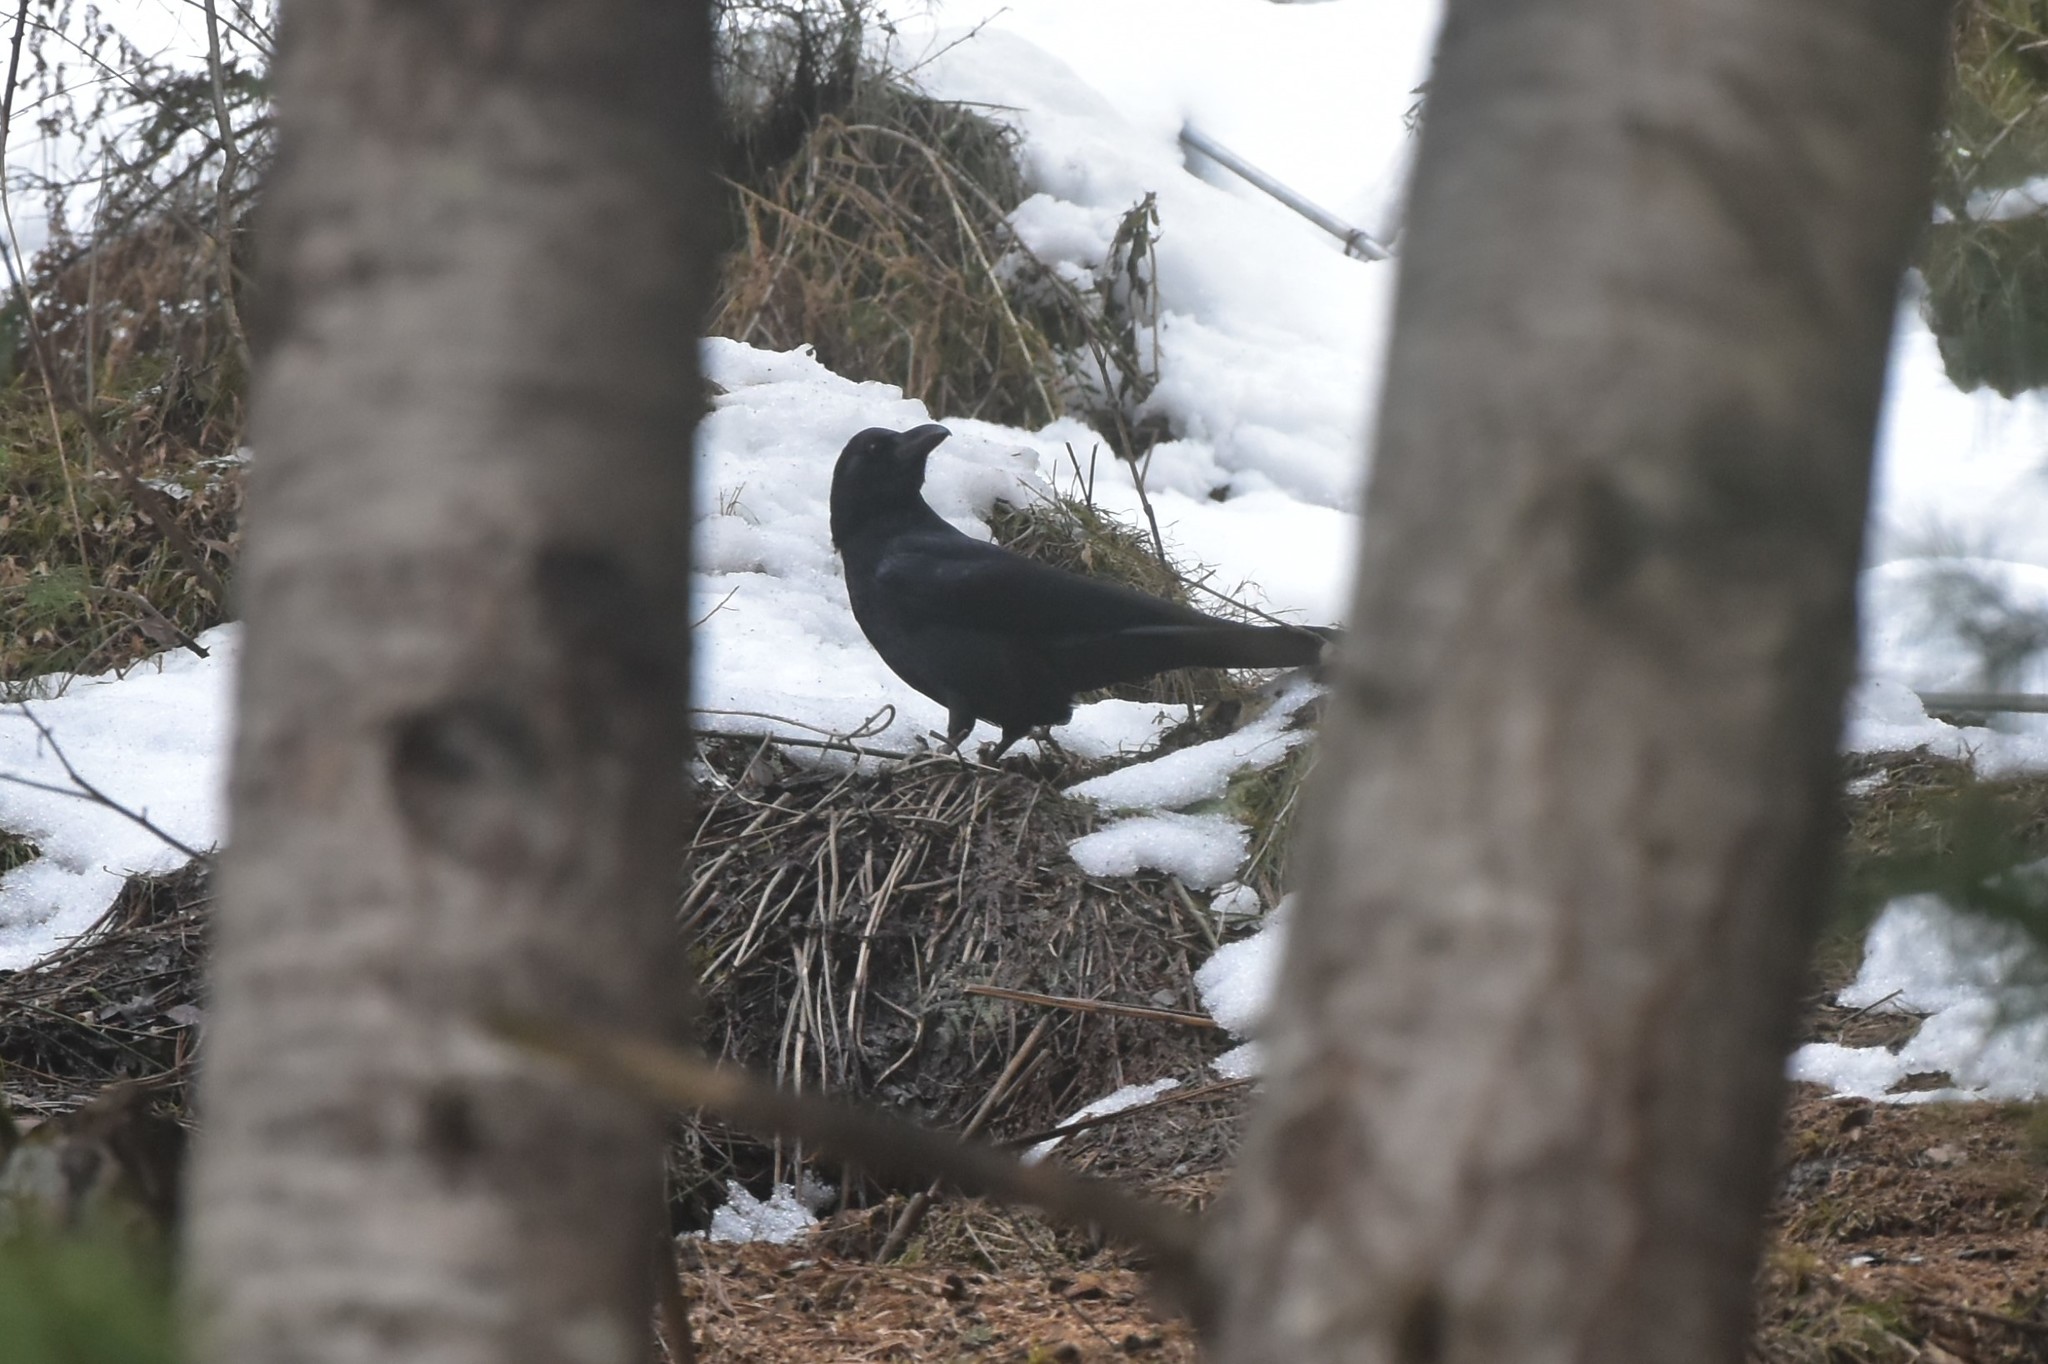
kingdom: Animalia
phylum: Chordata
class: Aves
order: Passeriformes
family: Corvidae
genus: Corvus
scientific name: Corvus macrorhynchos
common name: Large-billed crow
